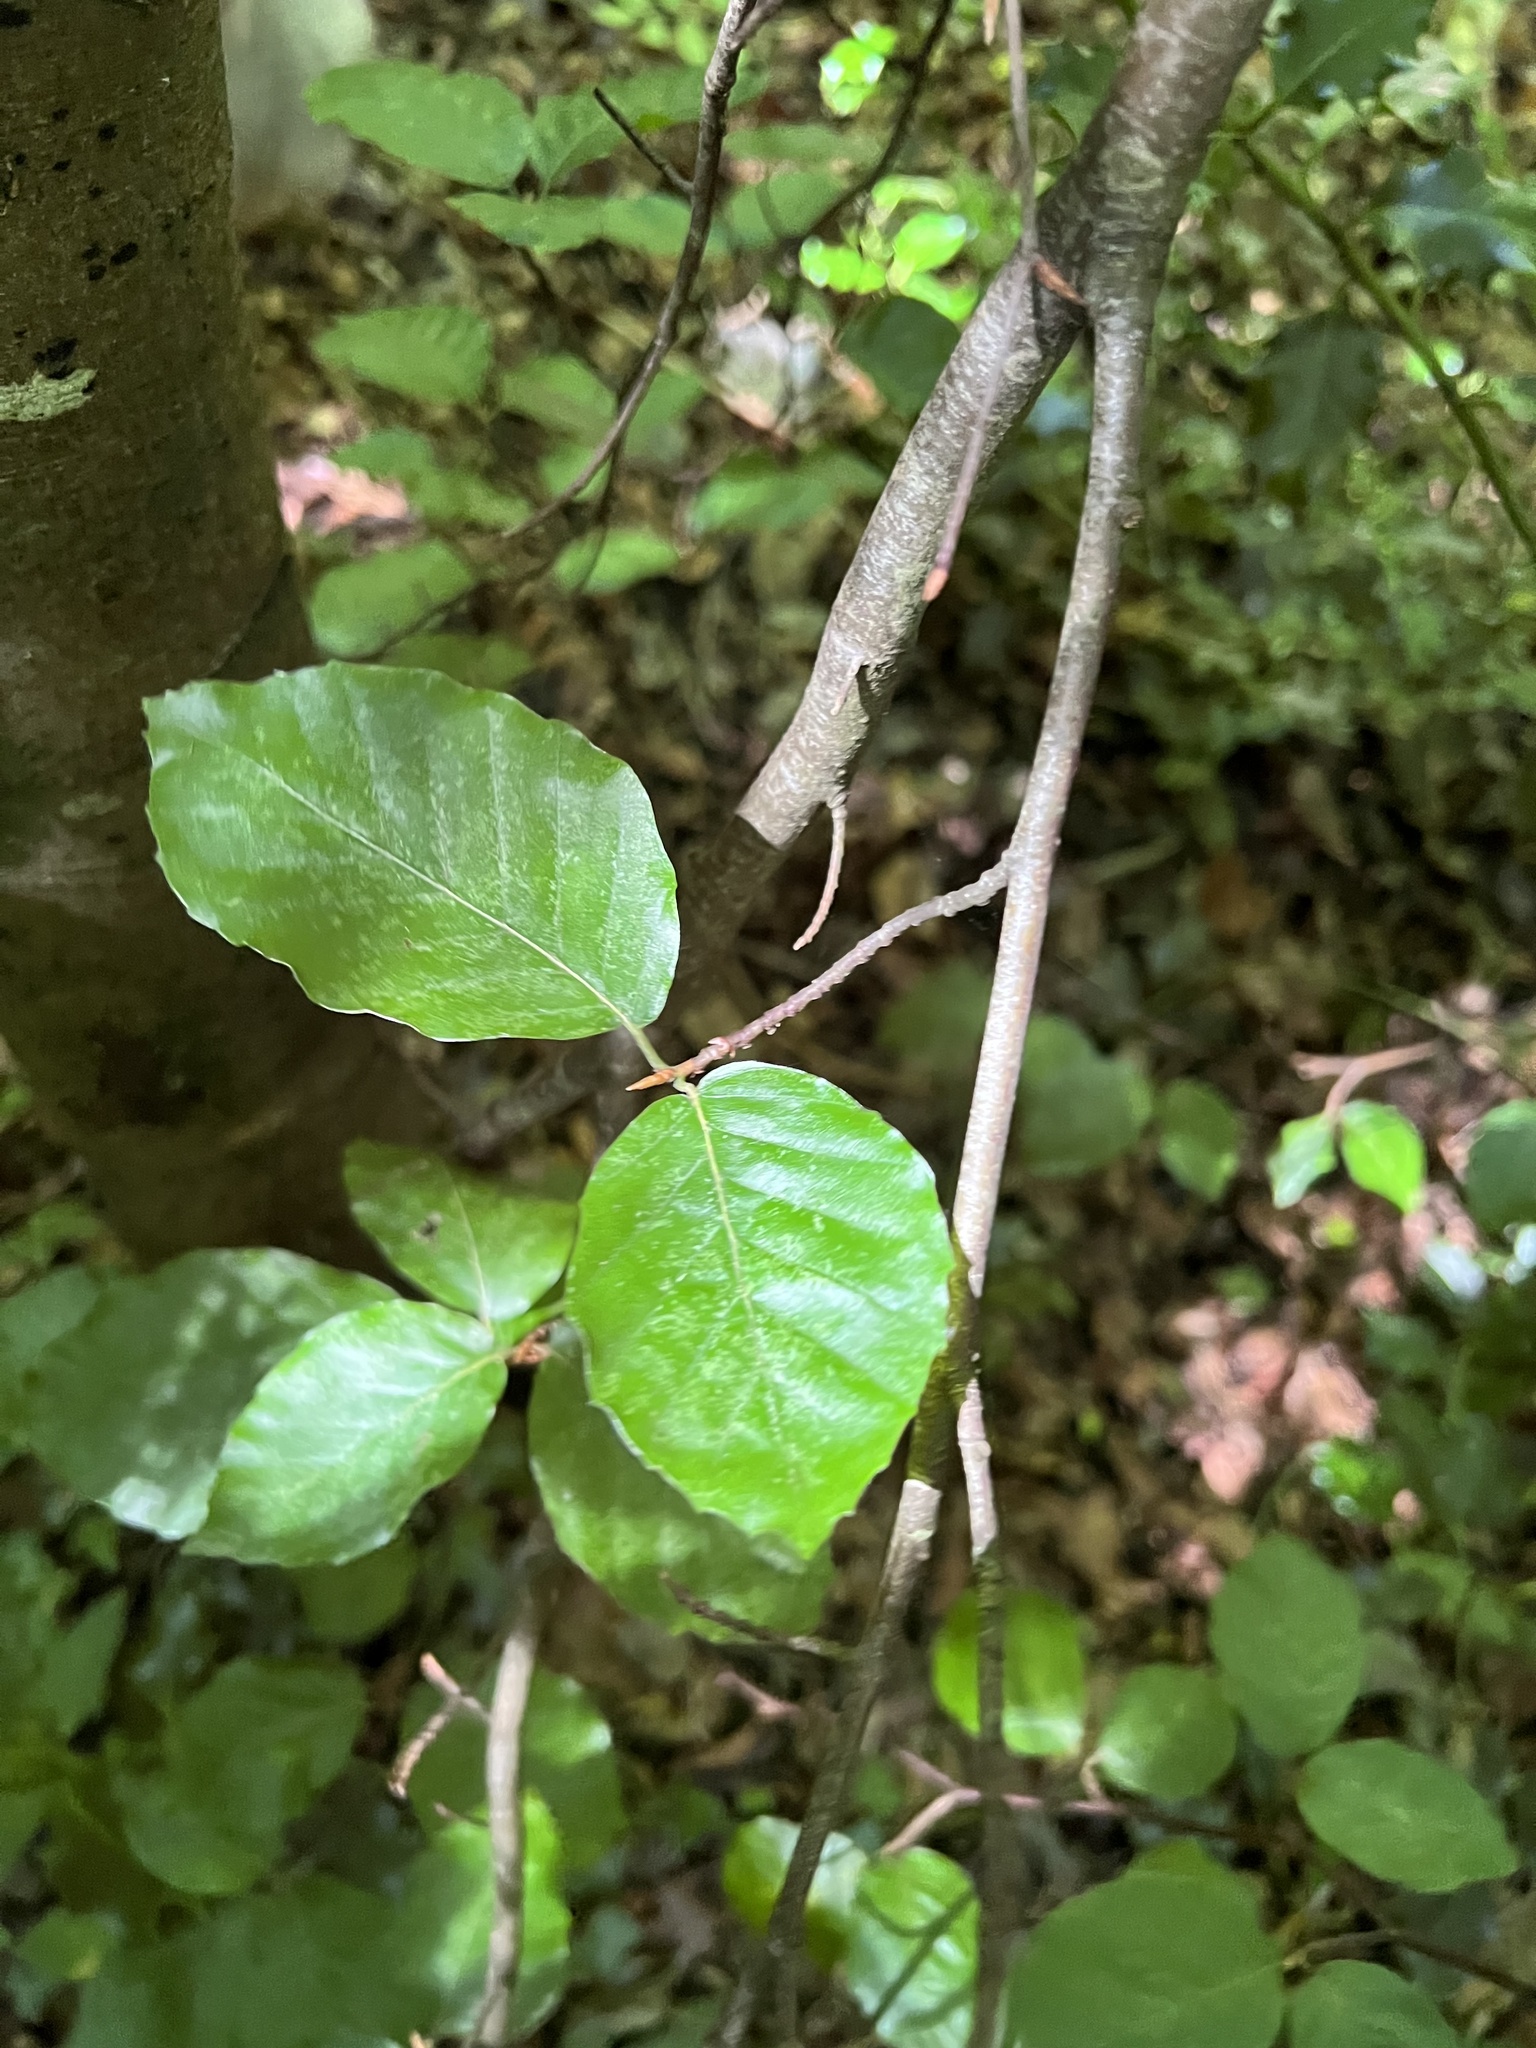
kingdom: Plantae
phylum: Tracheophyta
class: Magnoliopsida
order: Fagales
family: Fagaceae
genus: Fagus
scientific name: Fagus sylvatica
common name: Beech
